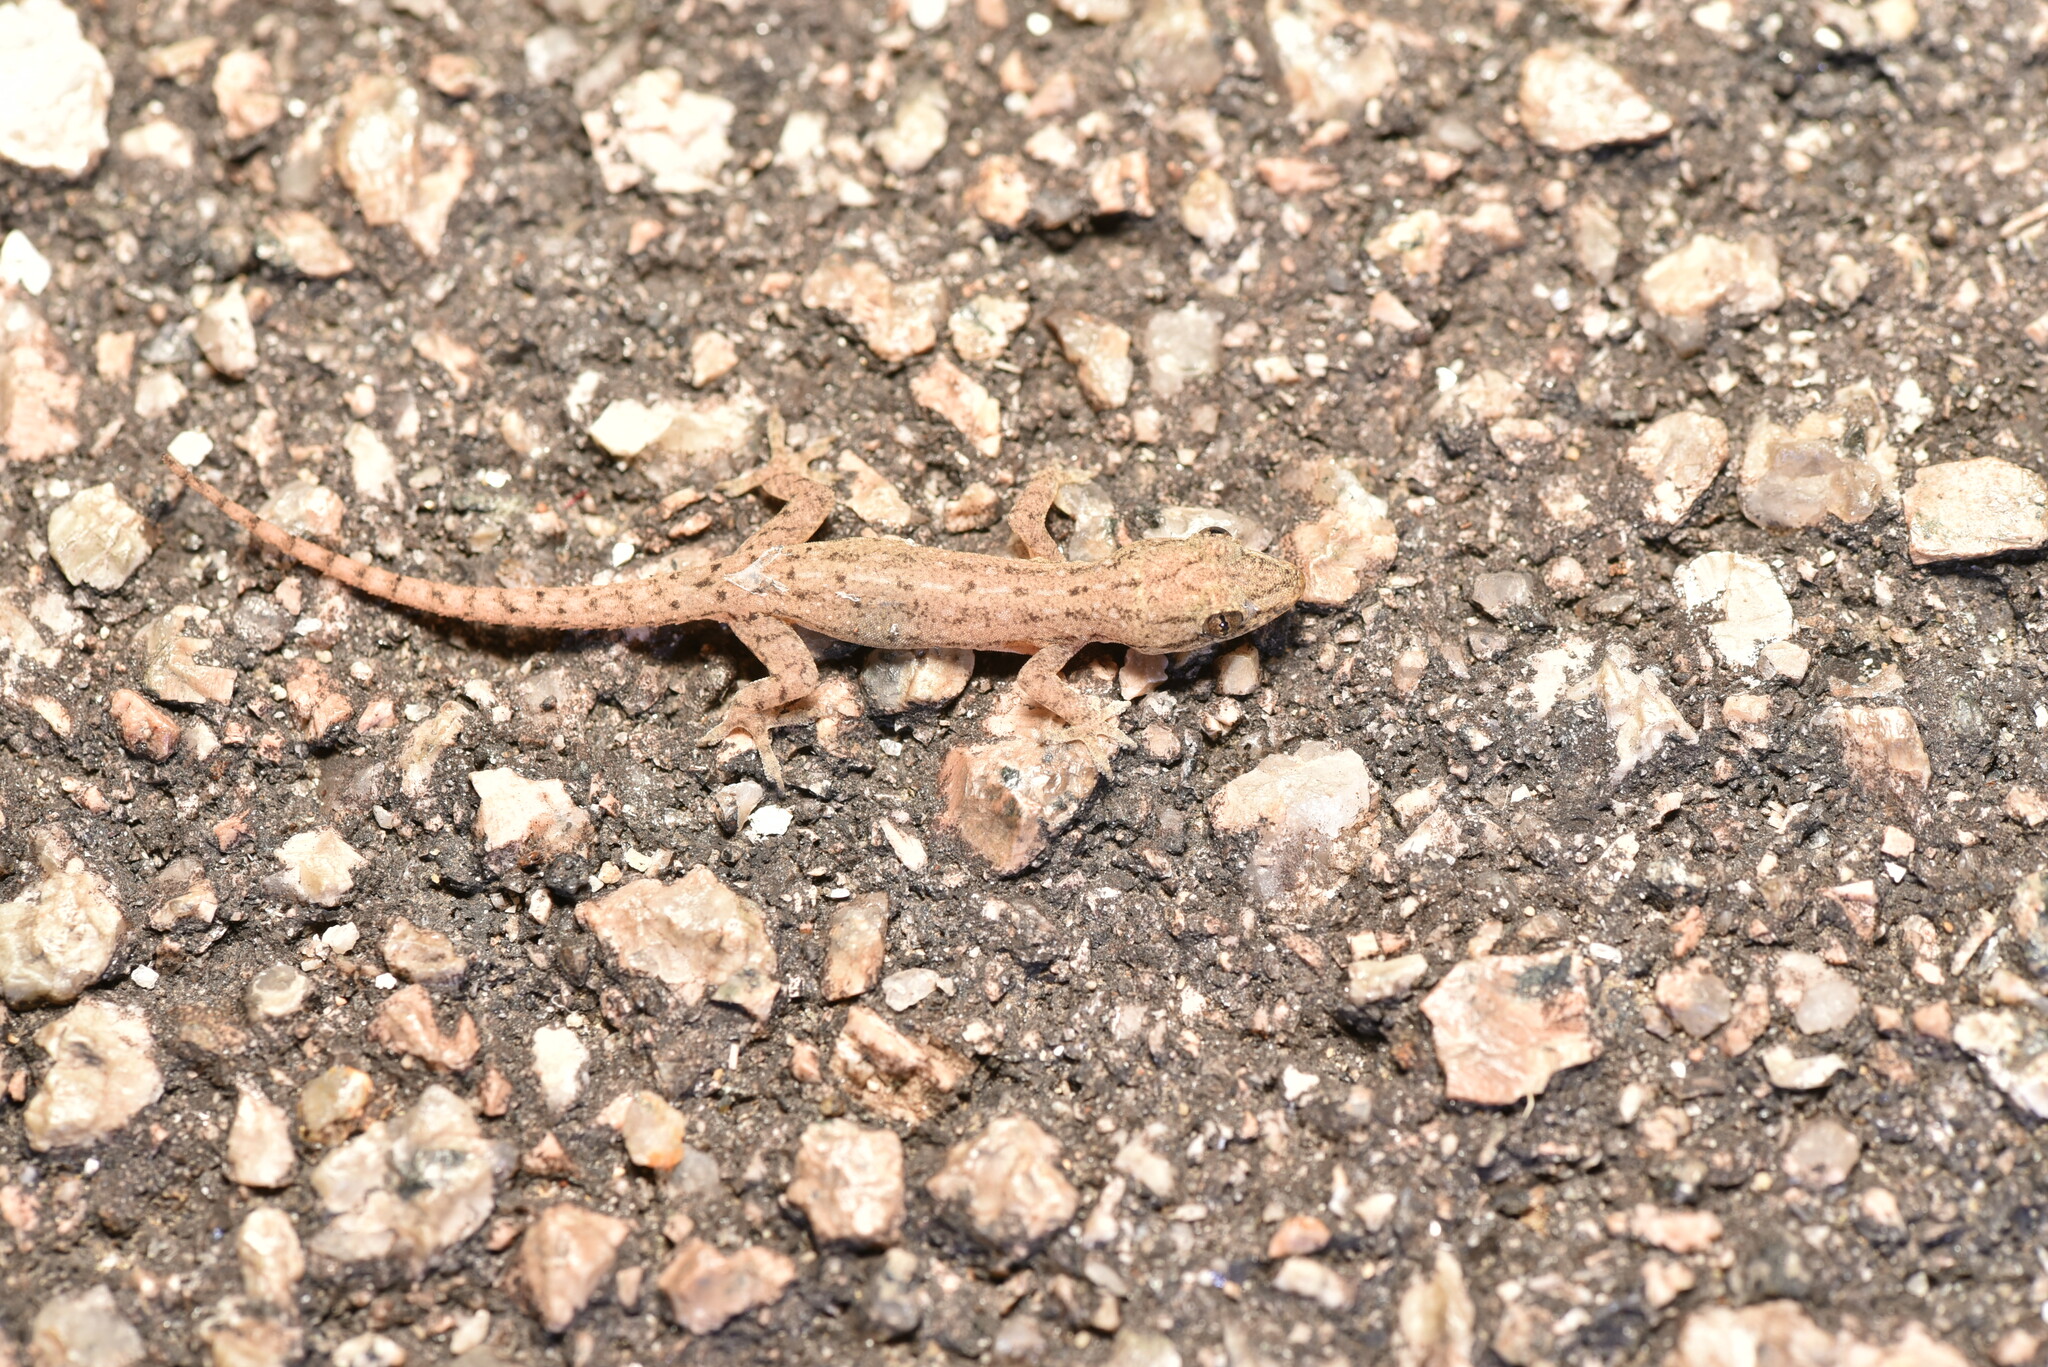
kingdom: Animalia
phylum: Chordata
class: Squamata
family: Gekkonidae
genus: Hemidactylus
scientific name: Hemidactylus frenatus
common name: Common house gecko
